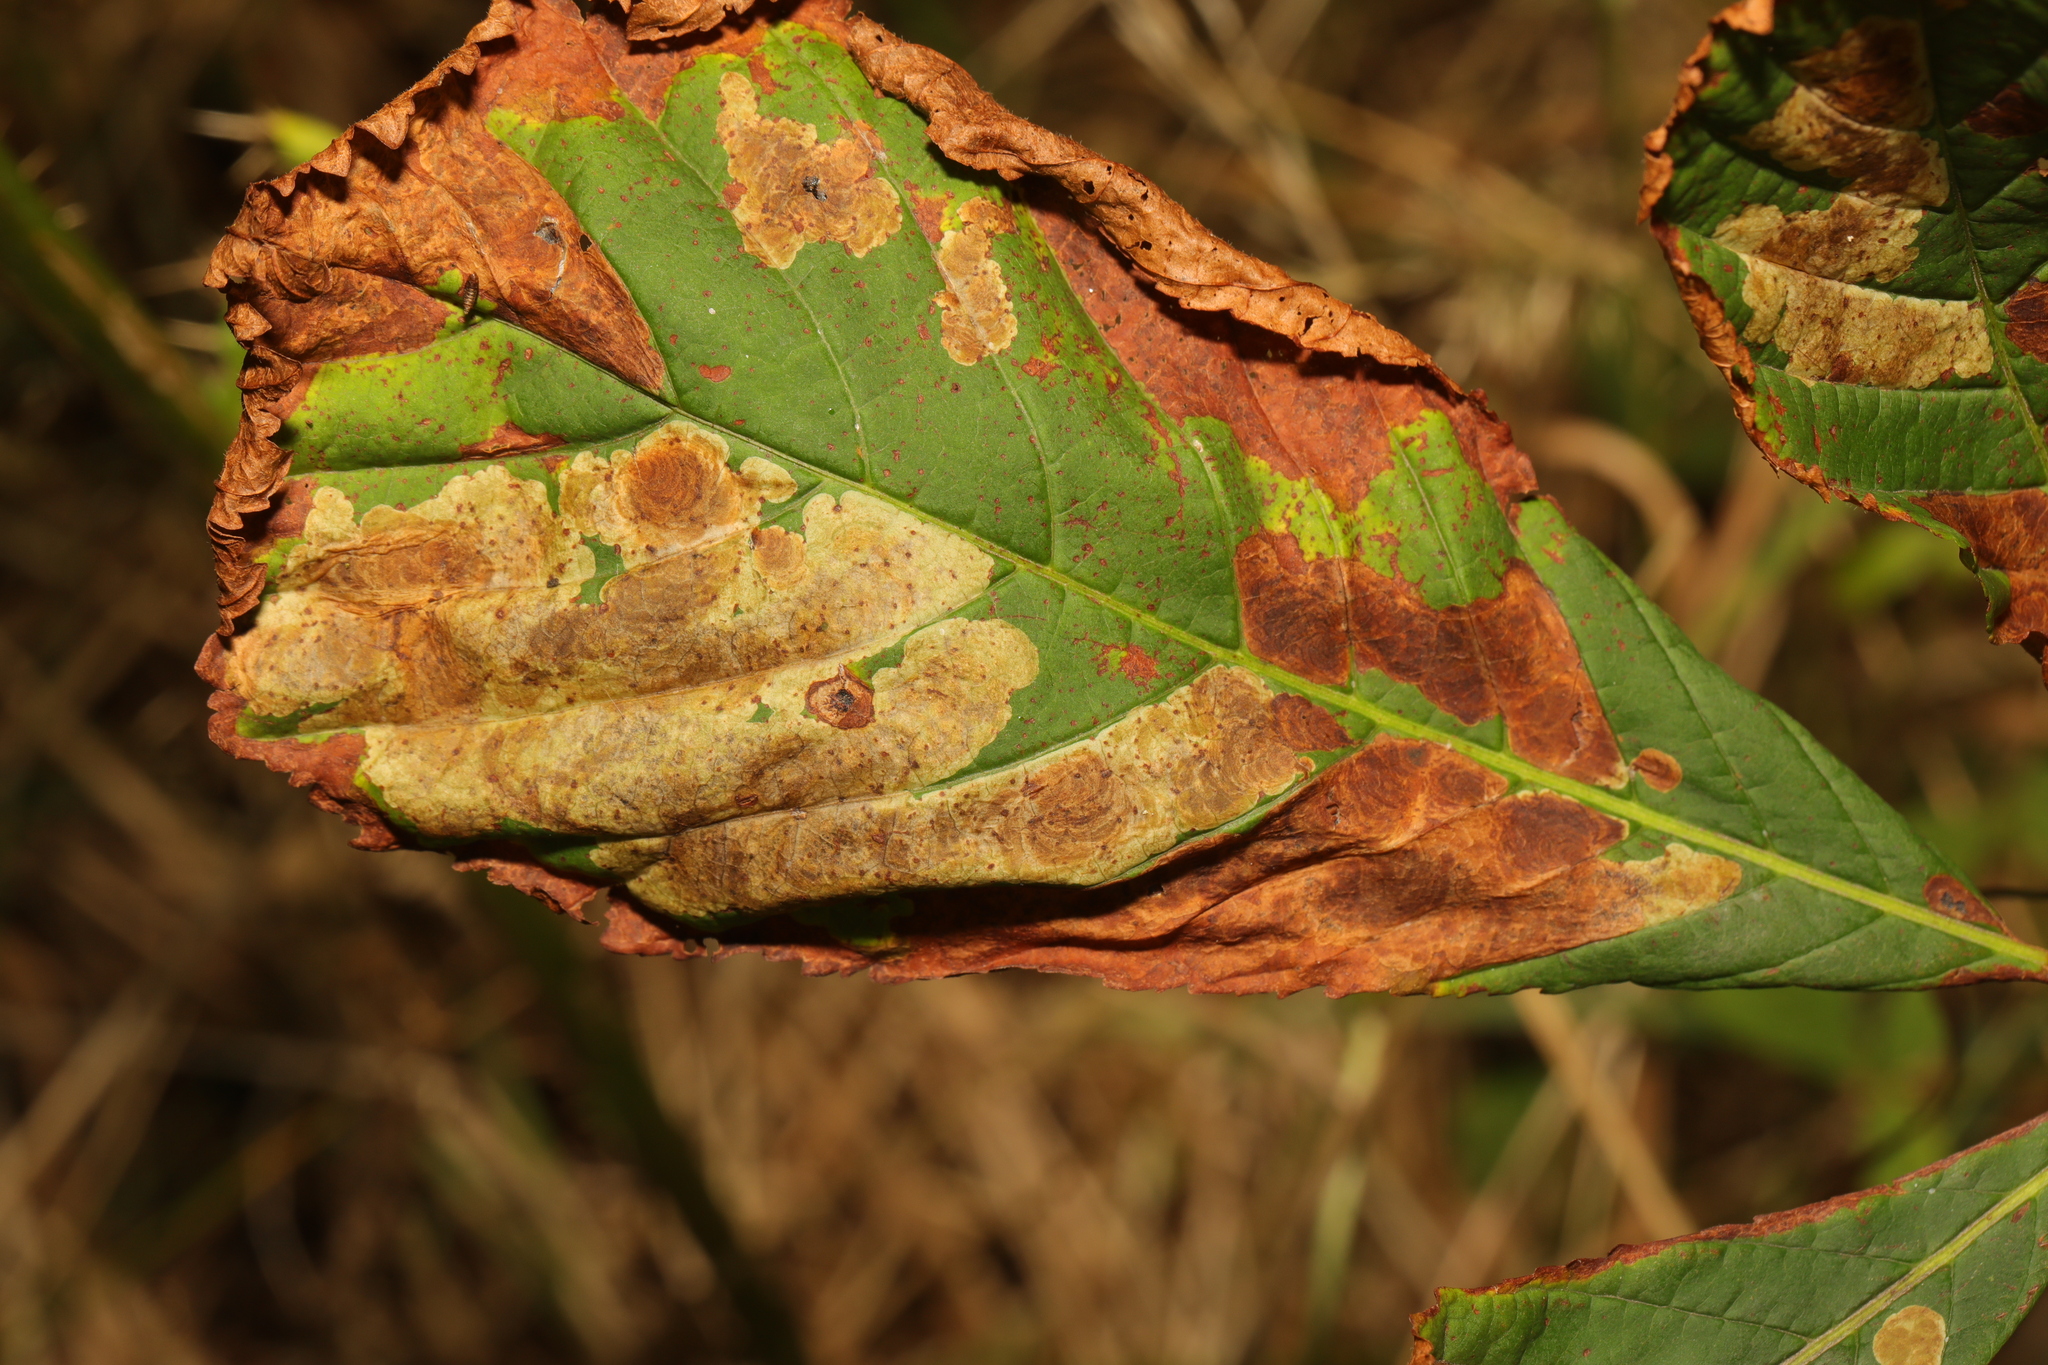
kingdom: Animalia
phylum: Arthropoda
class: Insecta
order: Lepidoptera
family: Gracillariidae
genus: Cameraria
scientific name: Cameraria ohridella
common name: Horse-chestnut leaf-miner
